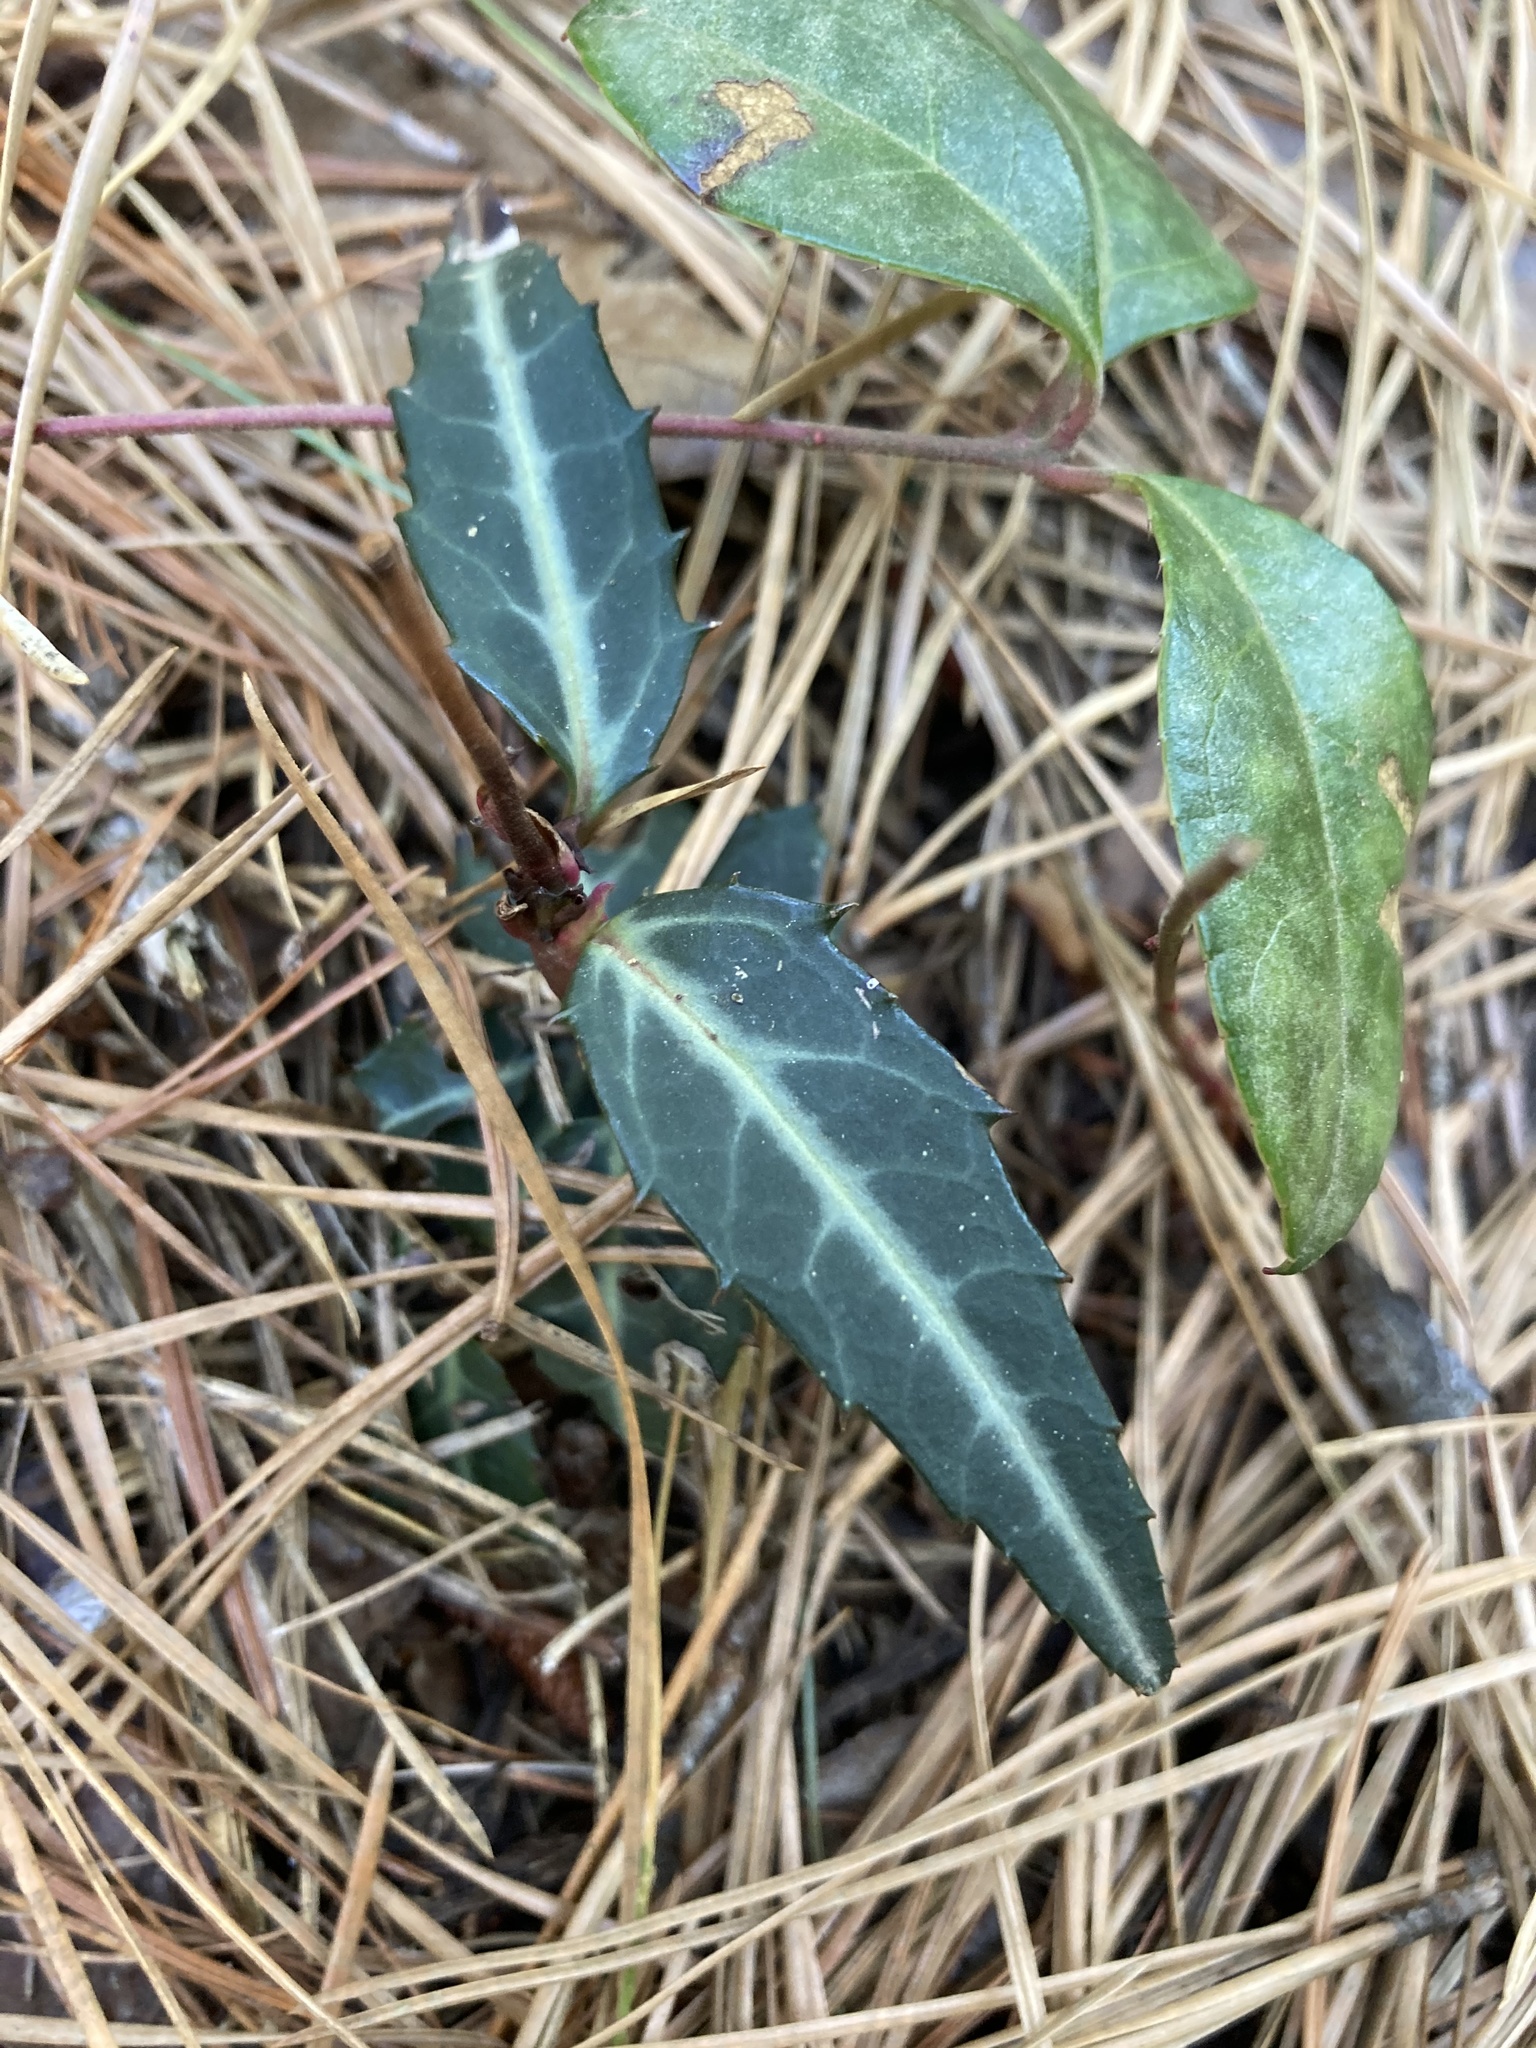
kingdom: Plantae
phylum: Tracheophyta
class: Magnoliopsida
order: Ericales
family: Ericaceae
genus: Chimaphila
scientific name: Chimaphila maculata
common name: Spotted pipsissewa
